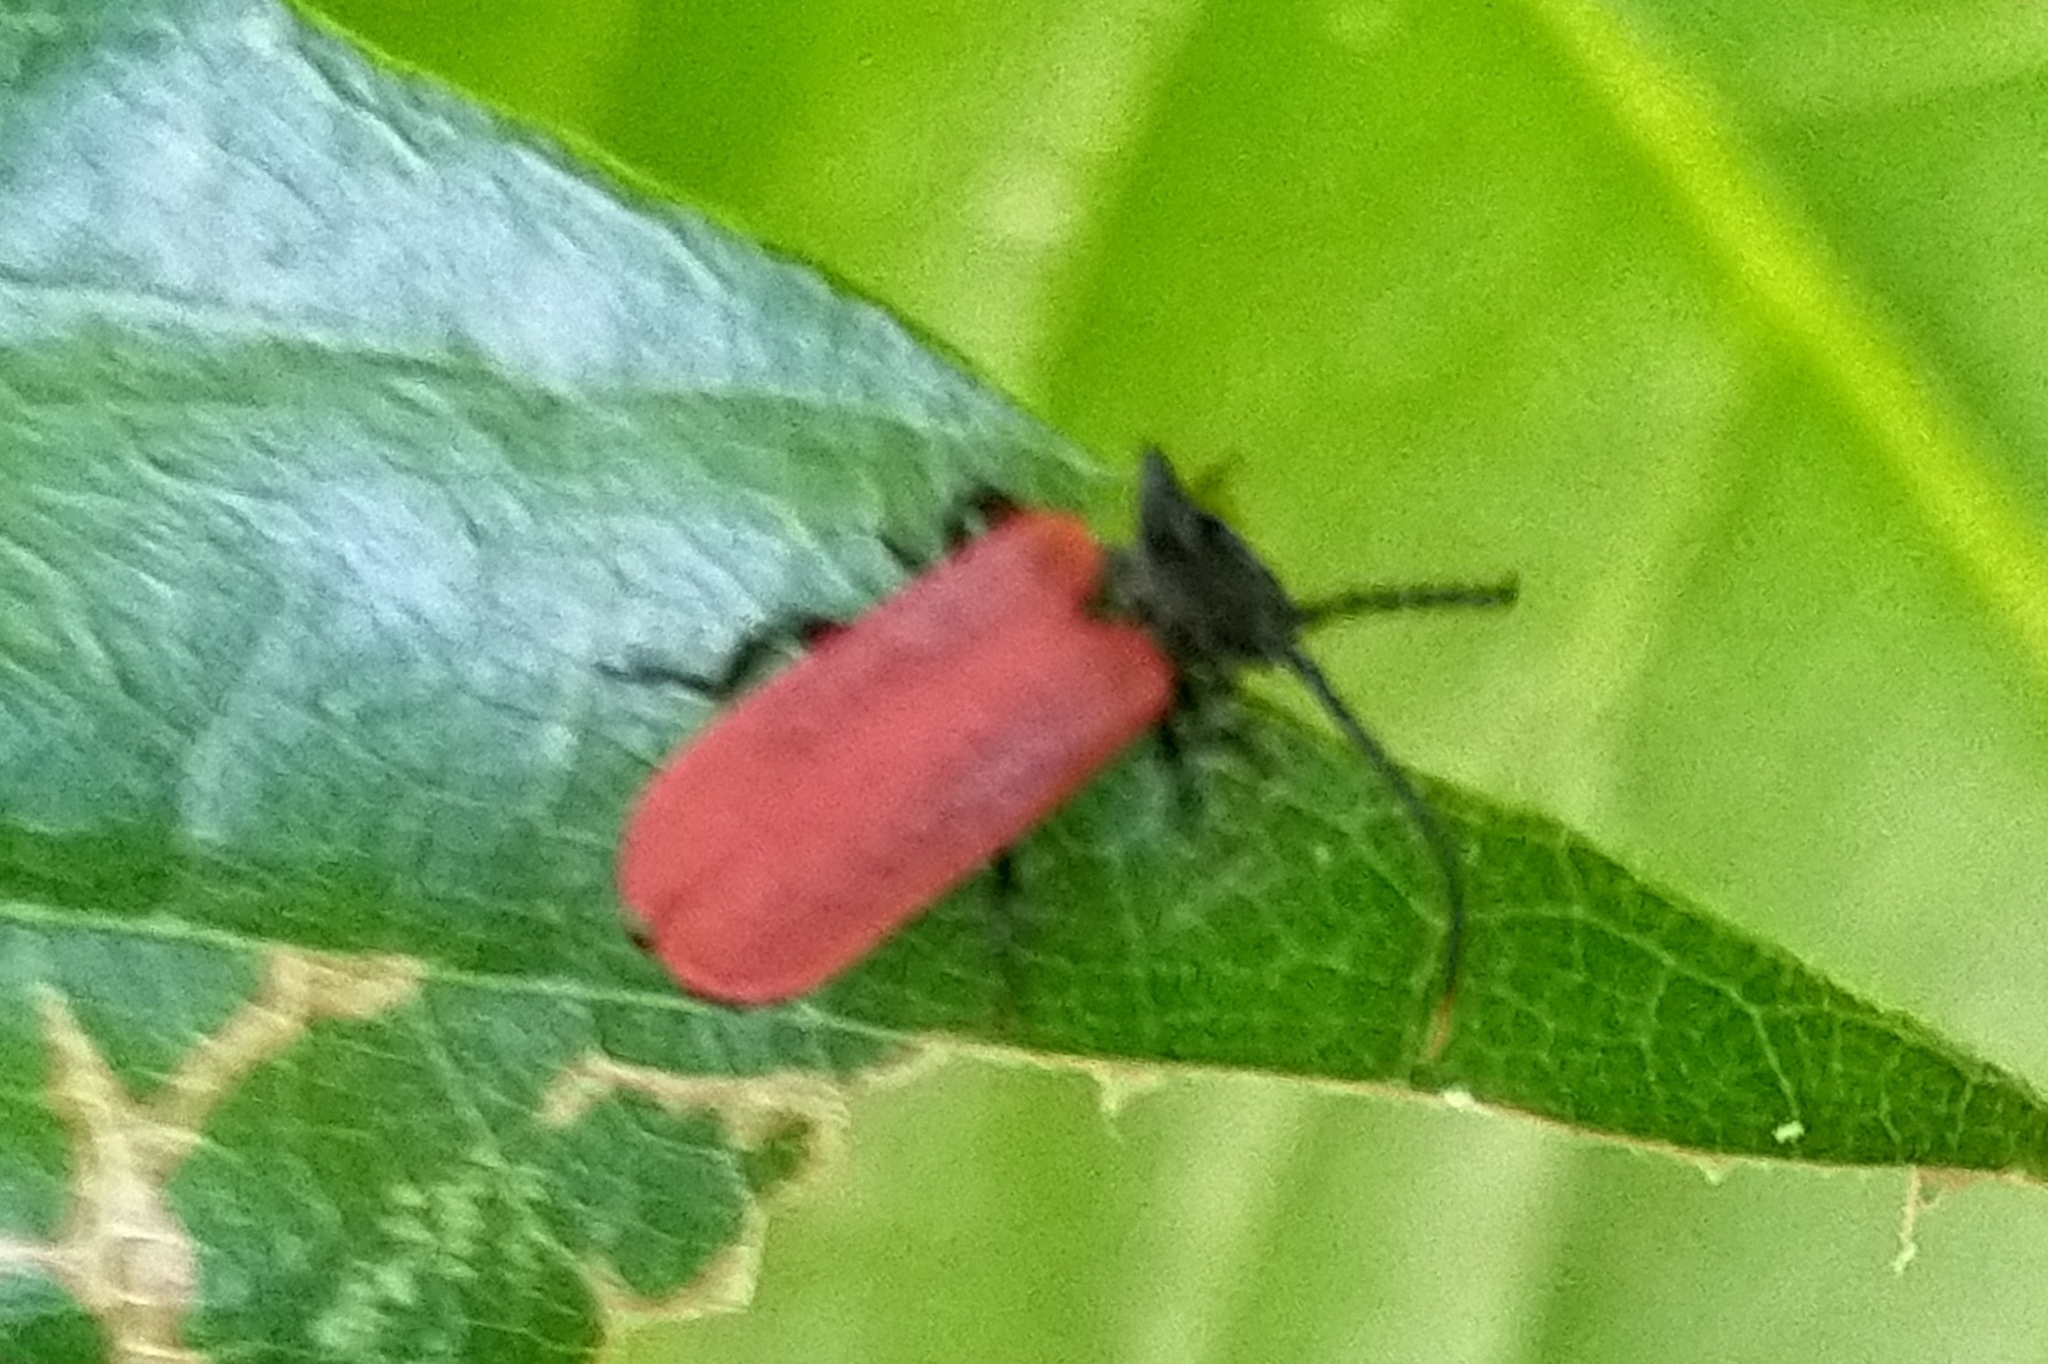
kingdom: Animalia
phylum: Arthropoda
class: Insecta
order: Coleoptera
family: Lycidae
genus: Platycis
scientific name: Platycis minutus
